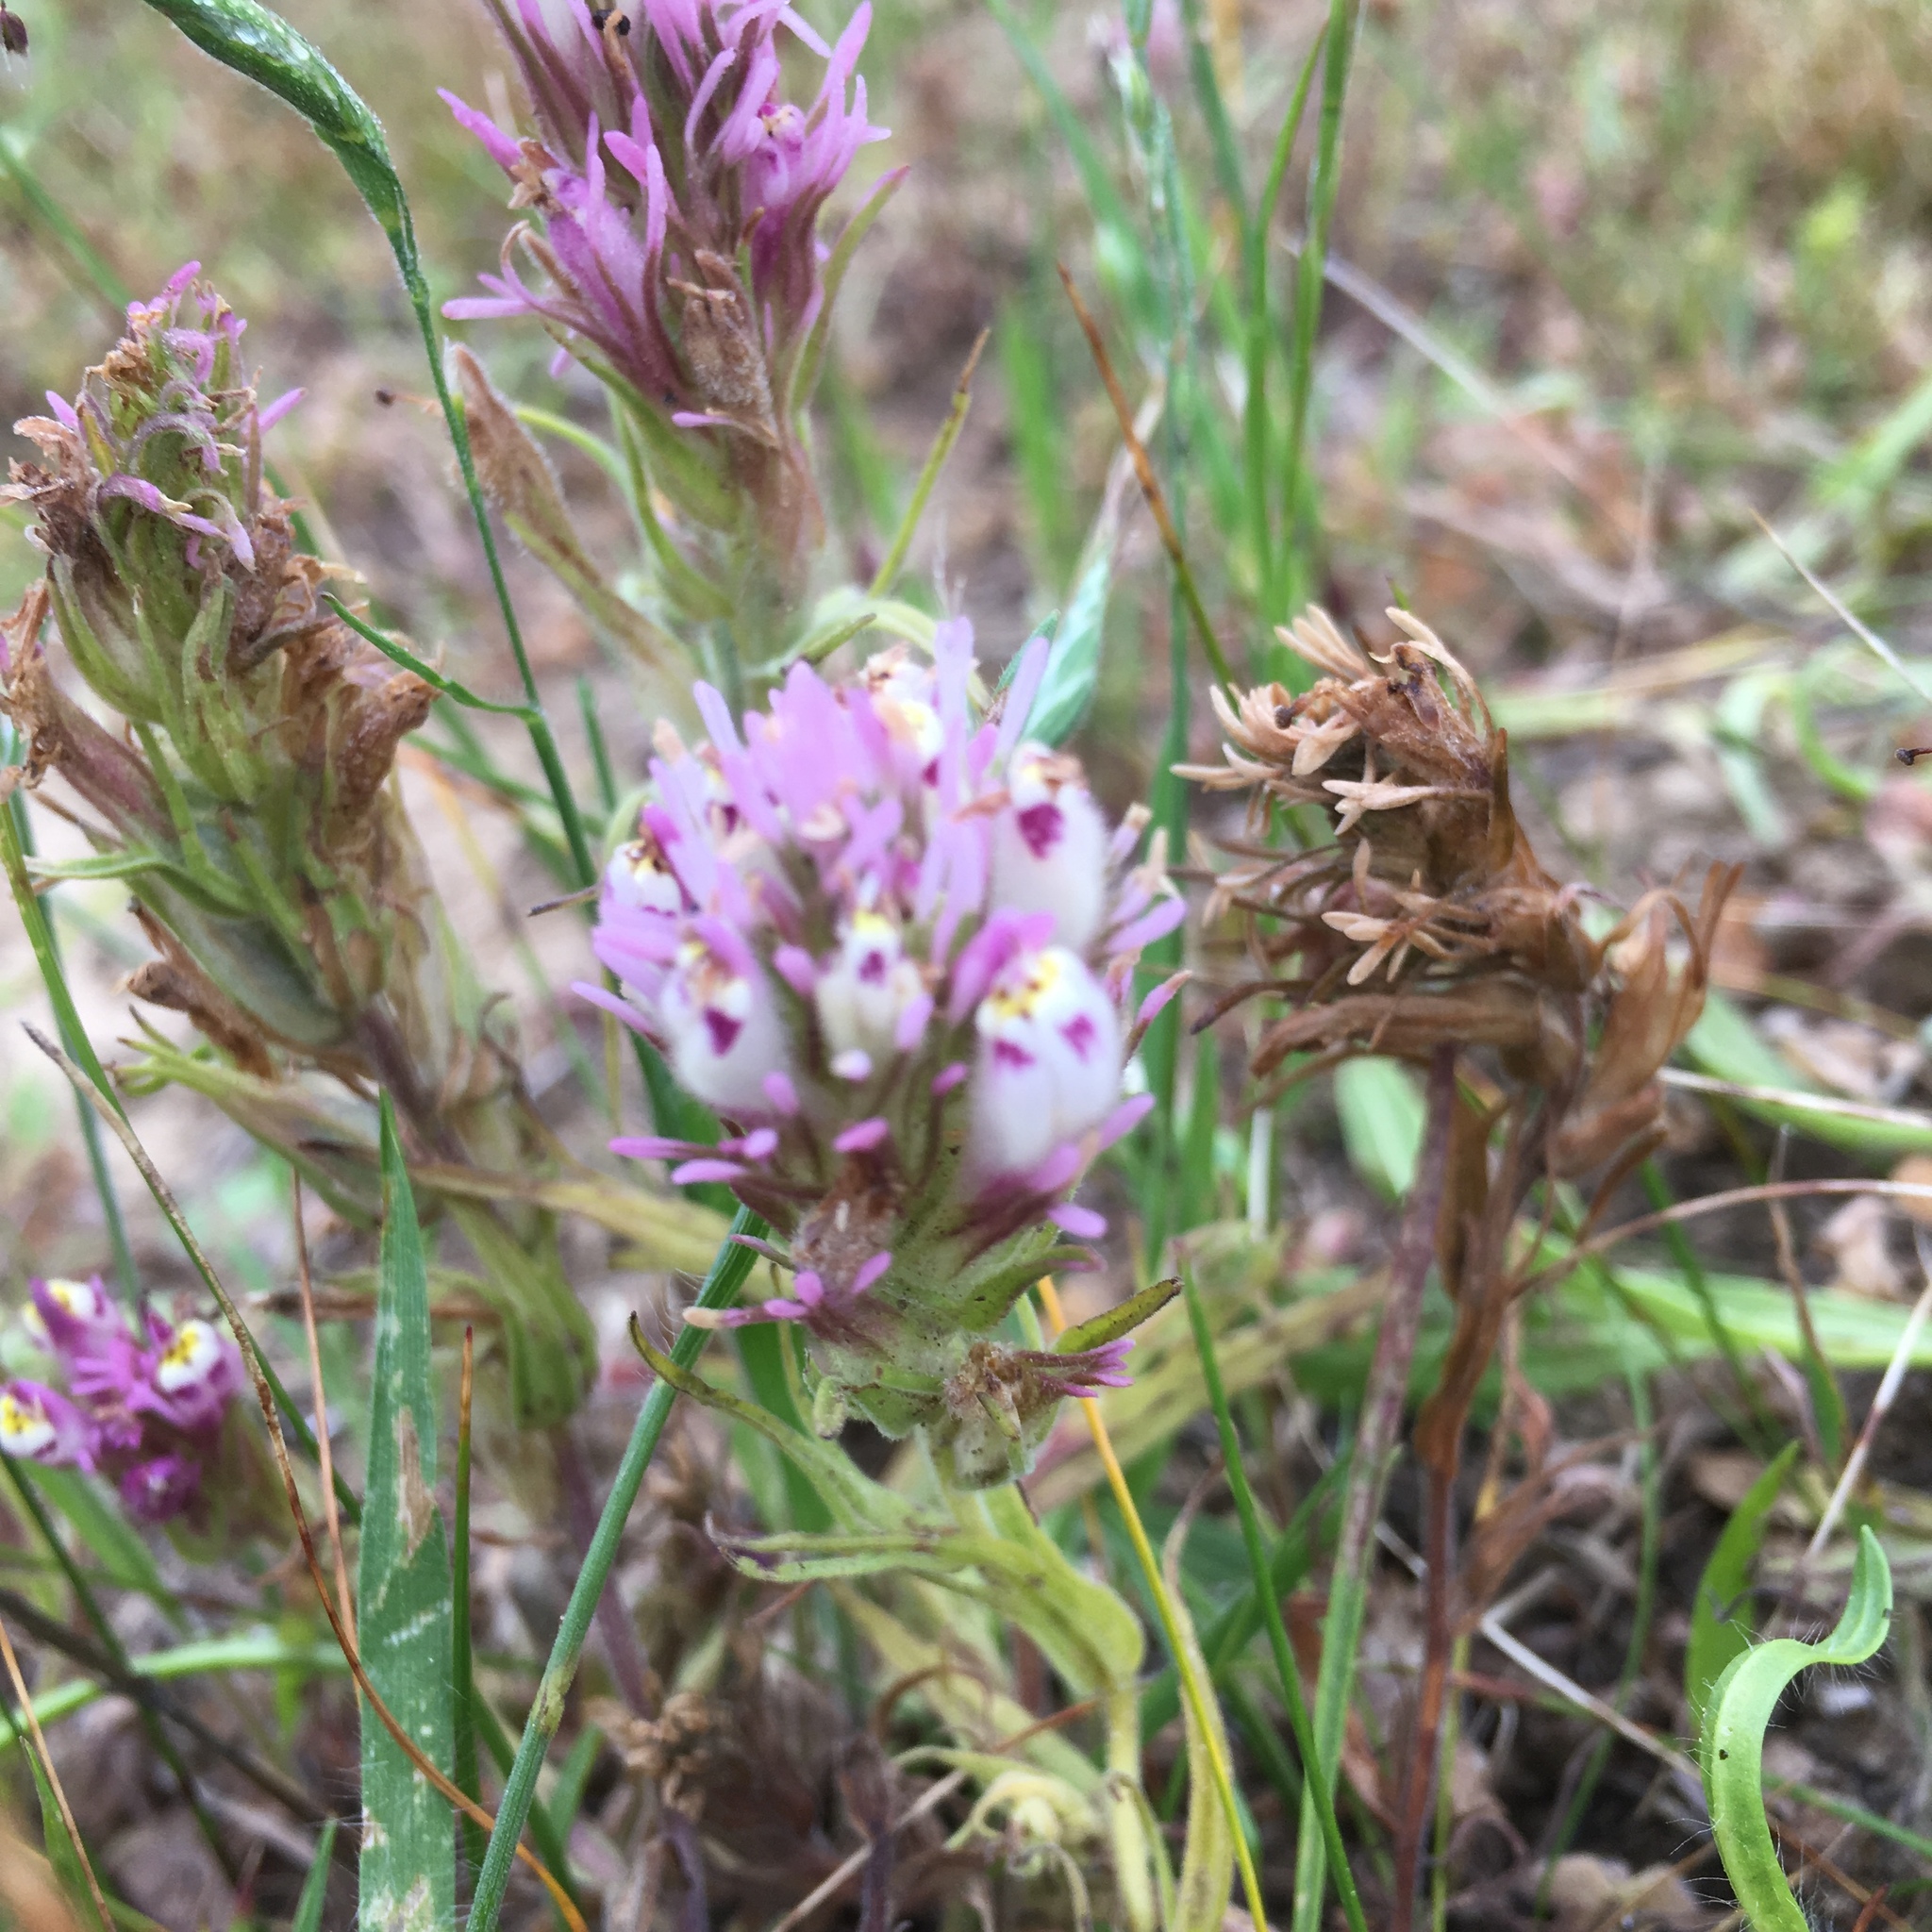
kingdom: Plantae
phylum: Tracheophyta
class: Magnoliopsida
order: Lamiales
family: Orobanchaceae
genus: Castilleja
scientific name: Castilleja densiflora
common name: Dense-flower indian paintbrush
